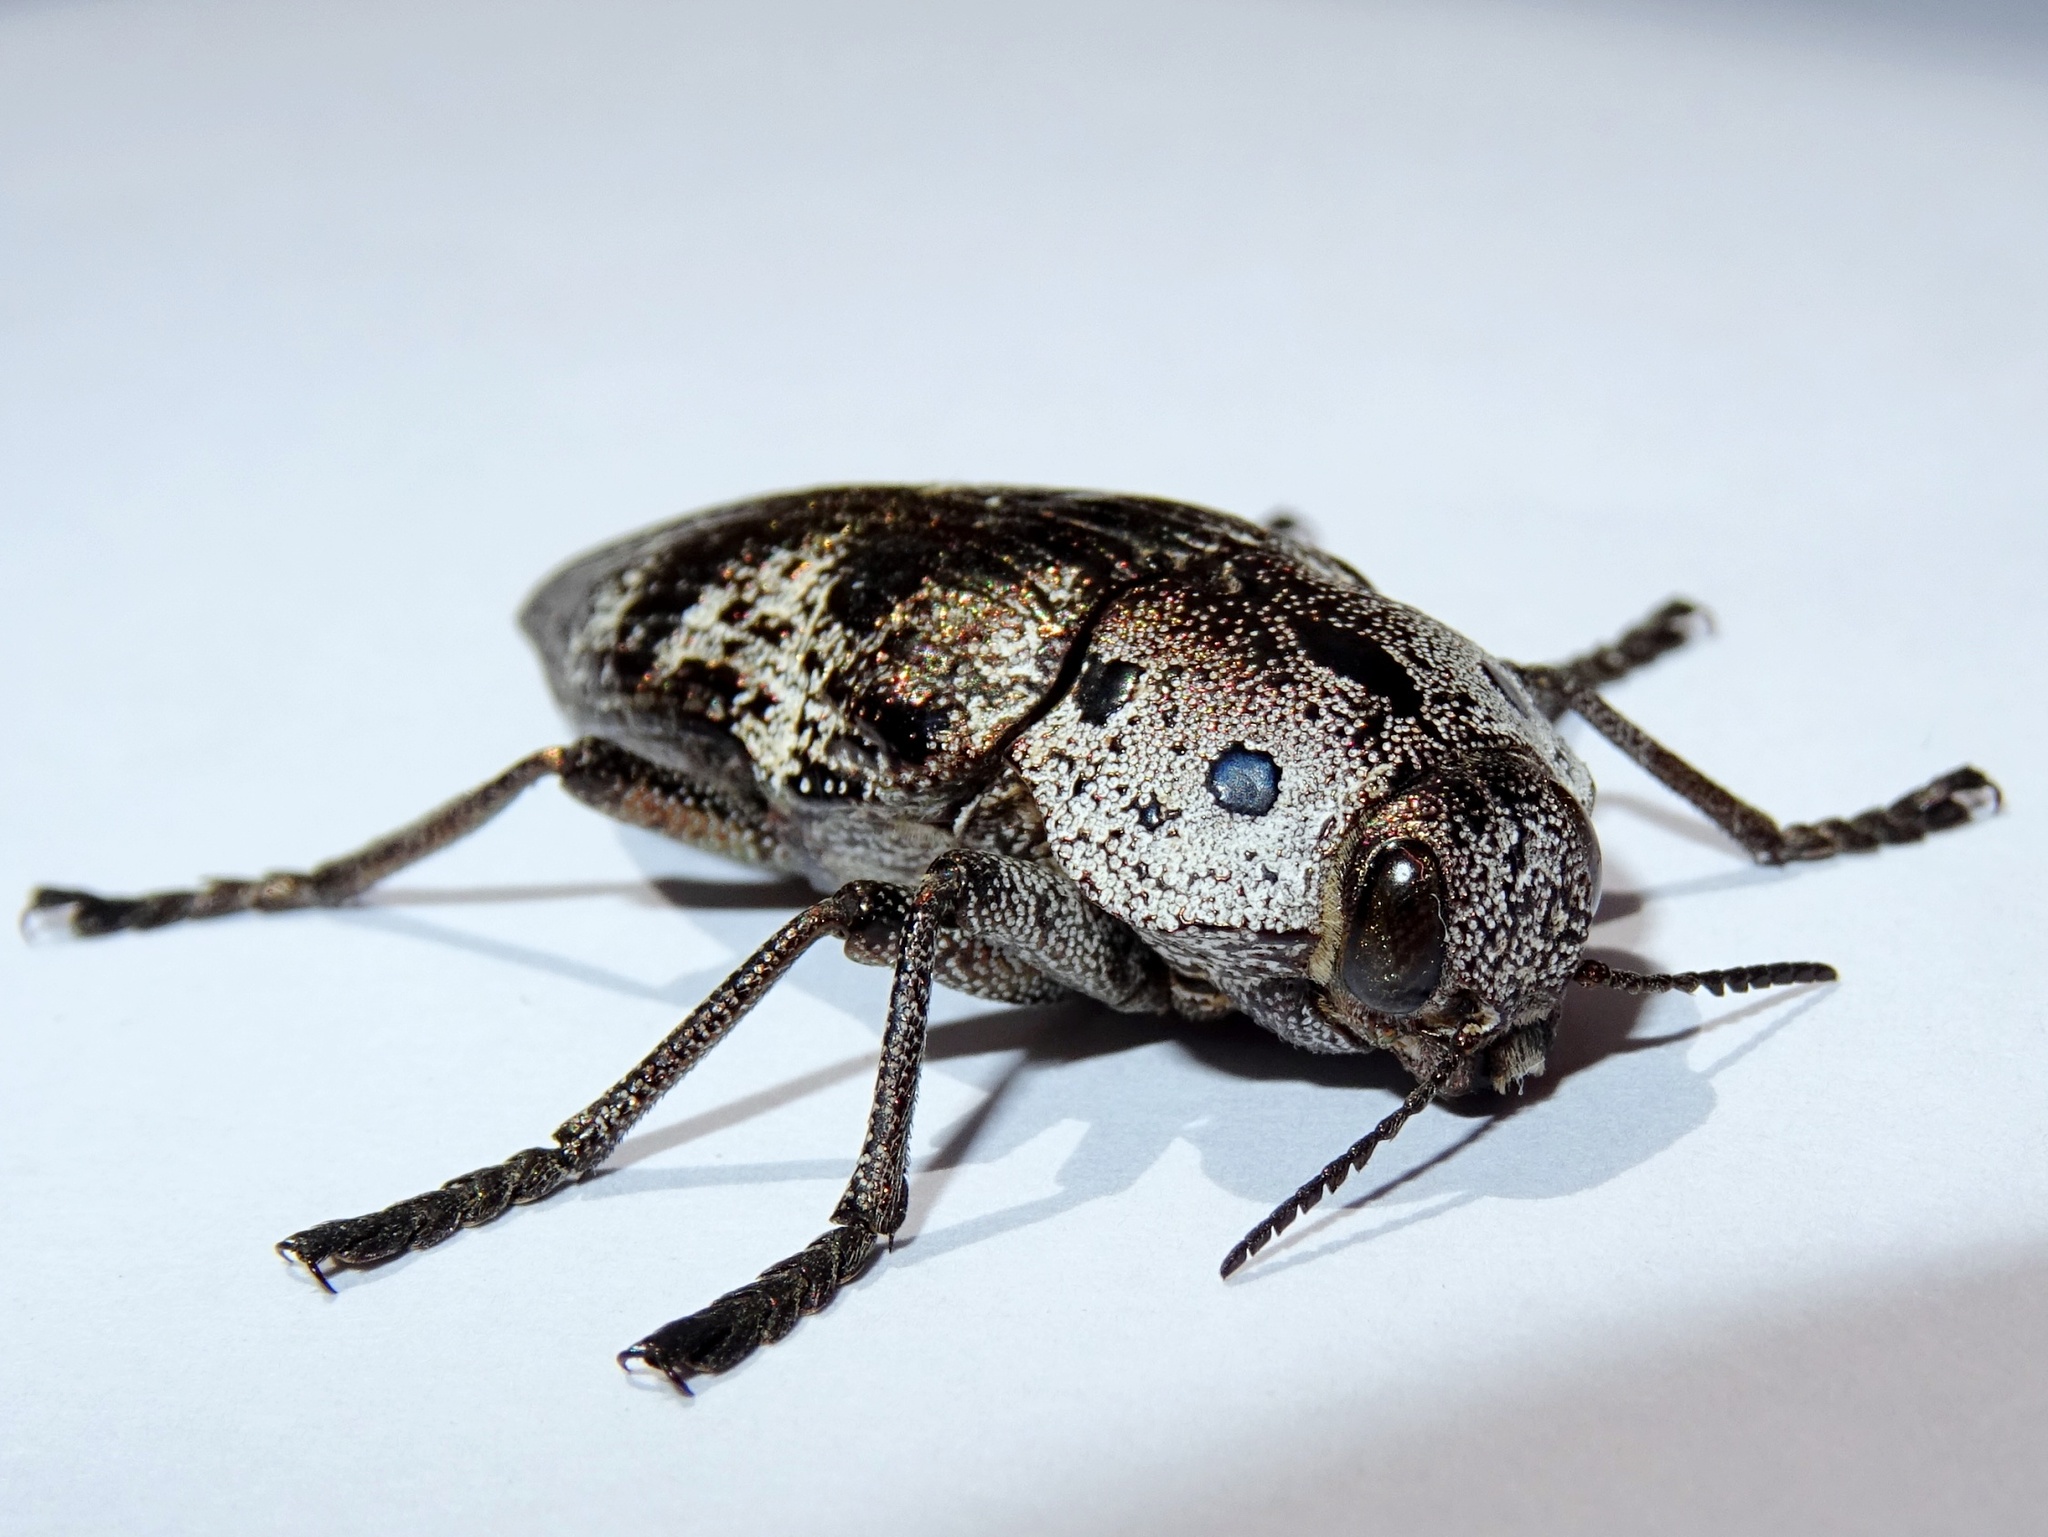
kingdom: Animalia
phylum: Arthropoda
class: Insecta
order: Coleoptera
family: Buprestidae
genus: Capnodis
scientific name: Capnodis miliaris
